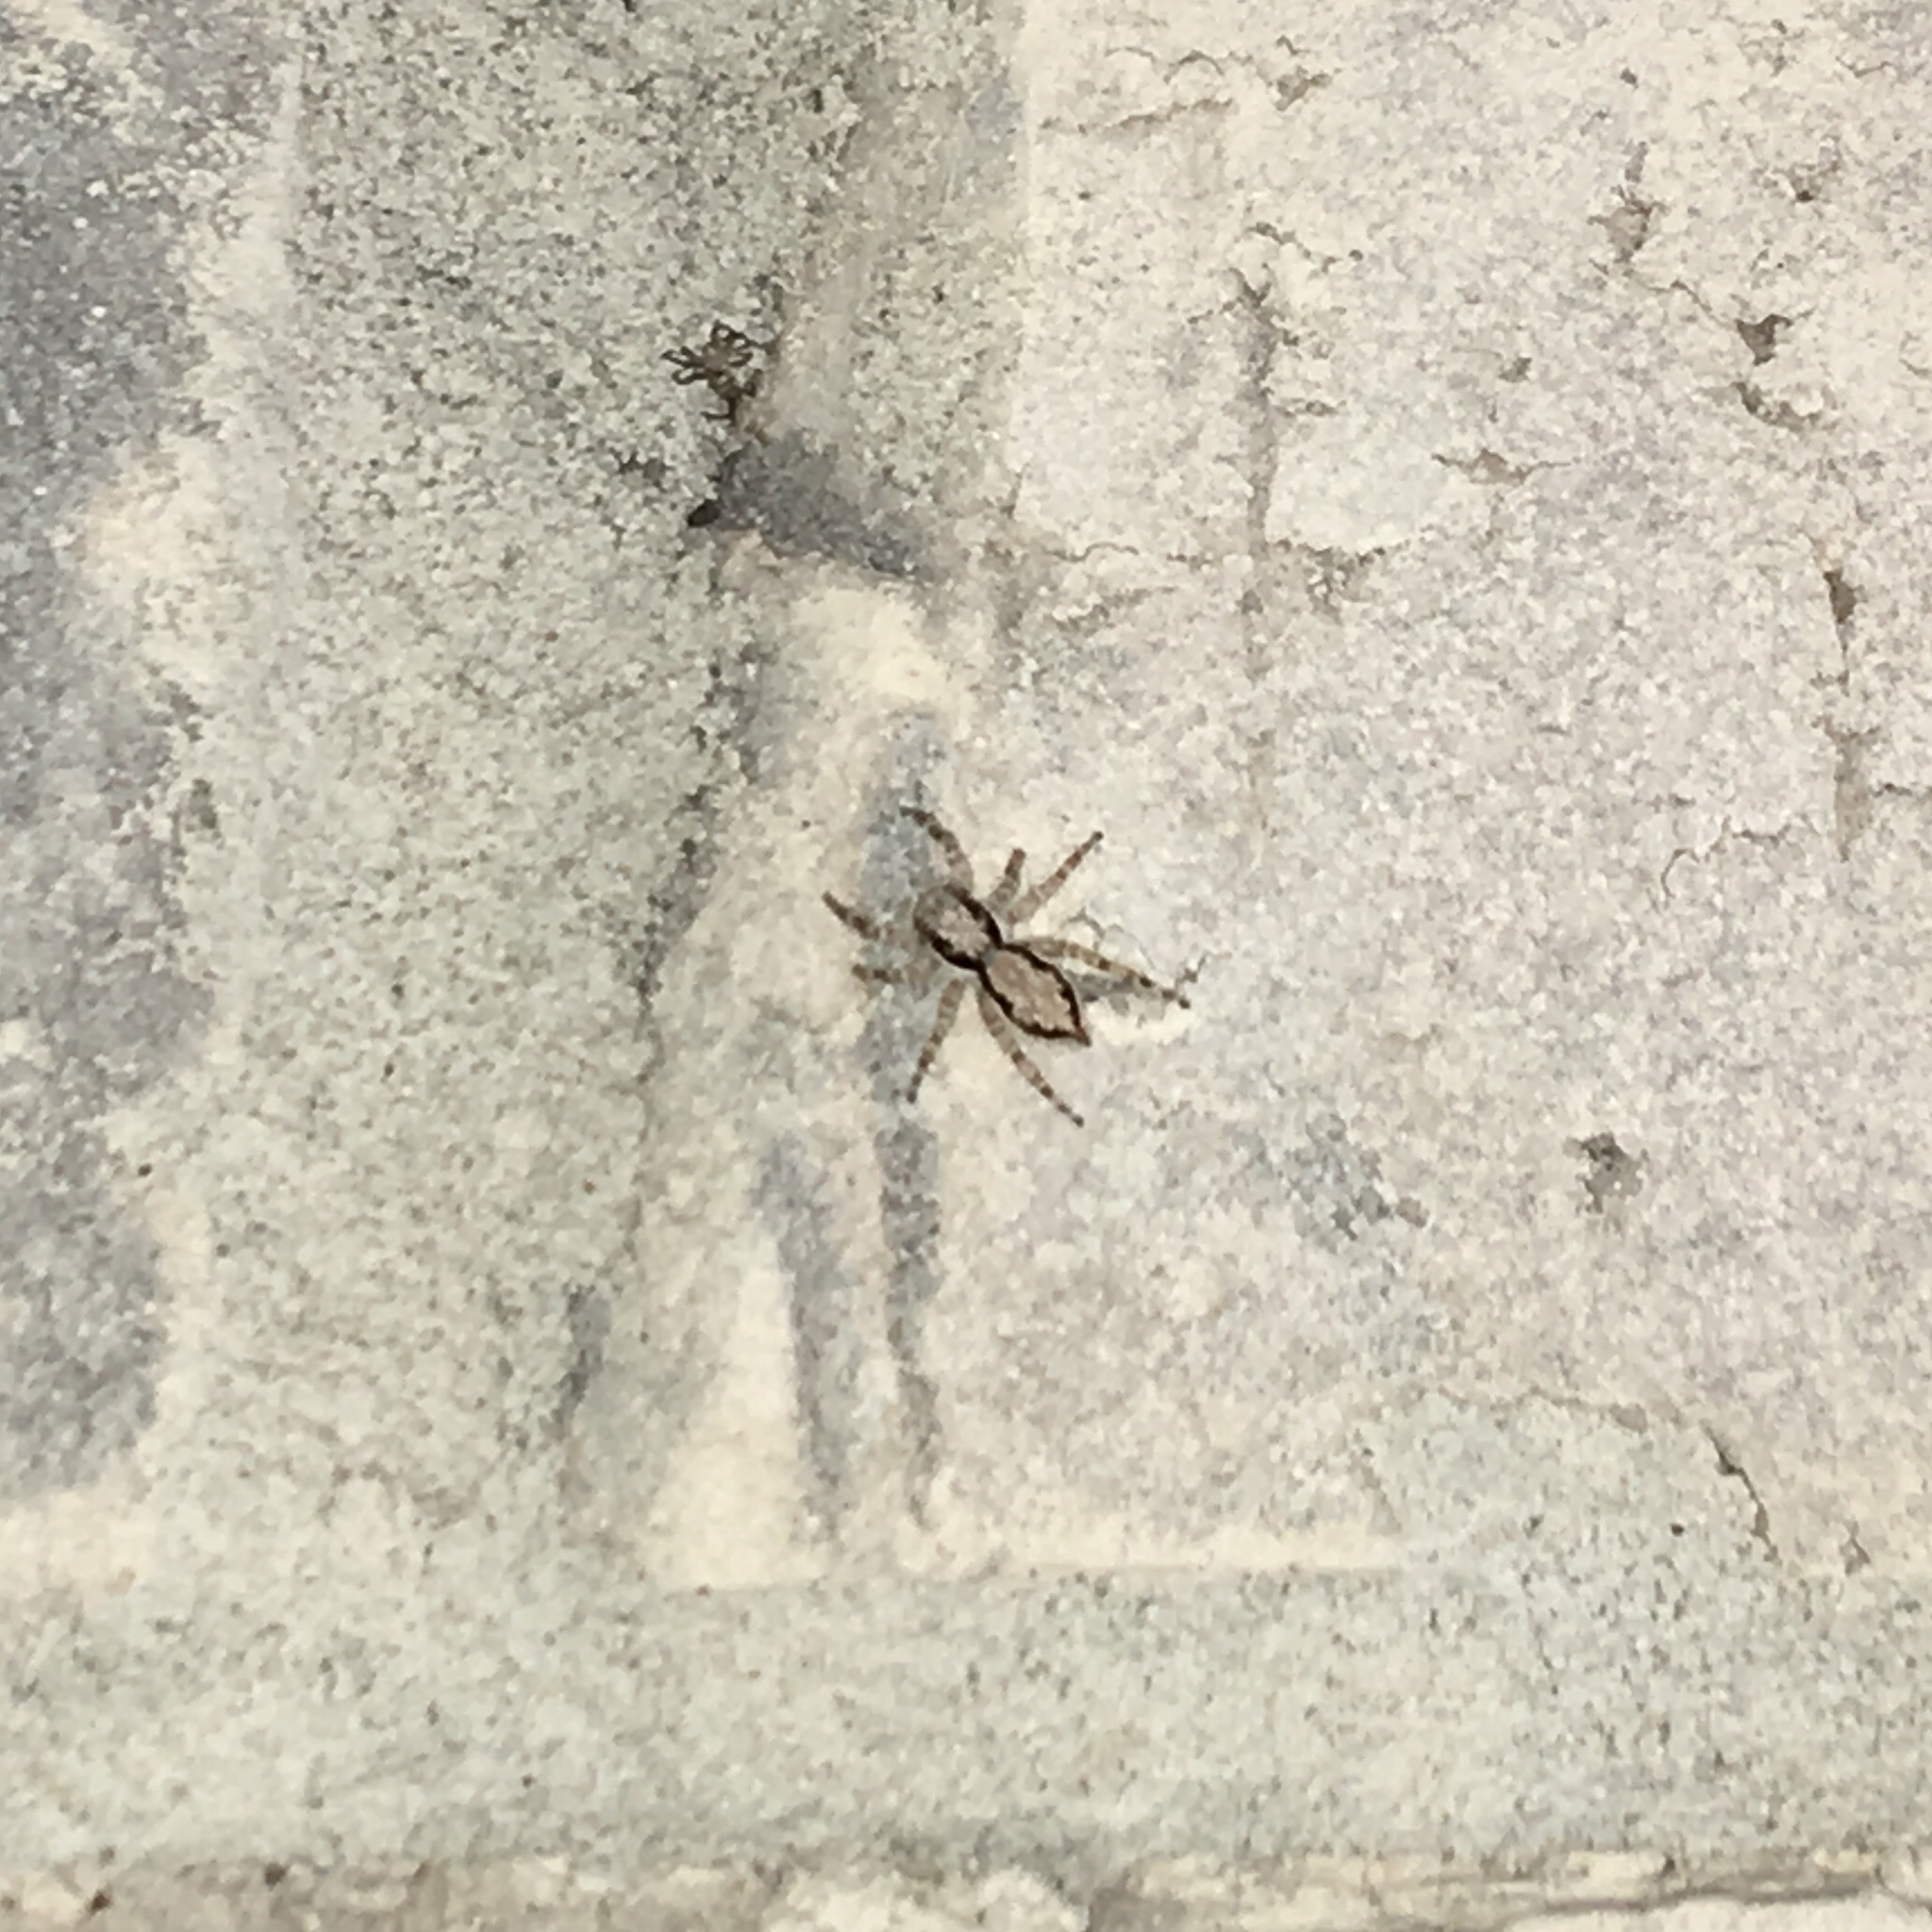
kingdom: Animalia
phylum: Arthropoda
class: Arachnida
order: Araneae
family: Salticidae
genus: Menemerus
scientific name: Menemerus bivittatus
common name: Gray wall jumper
